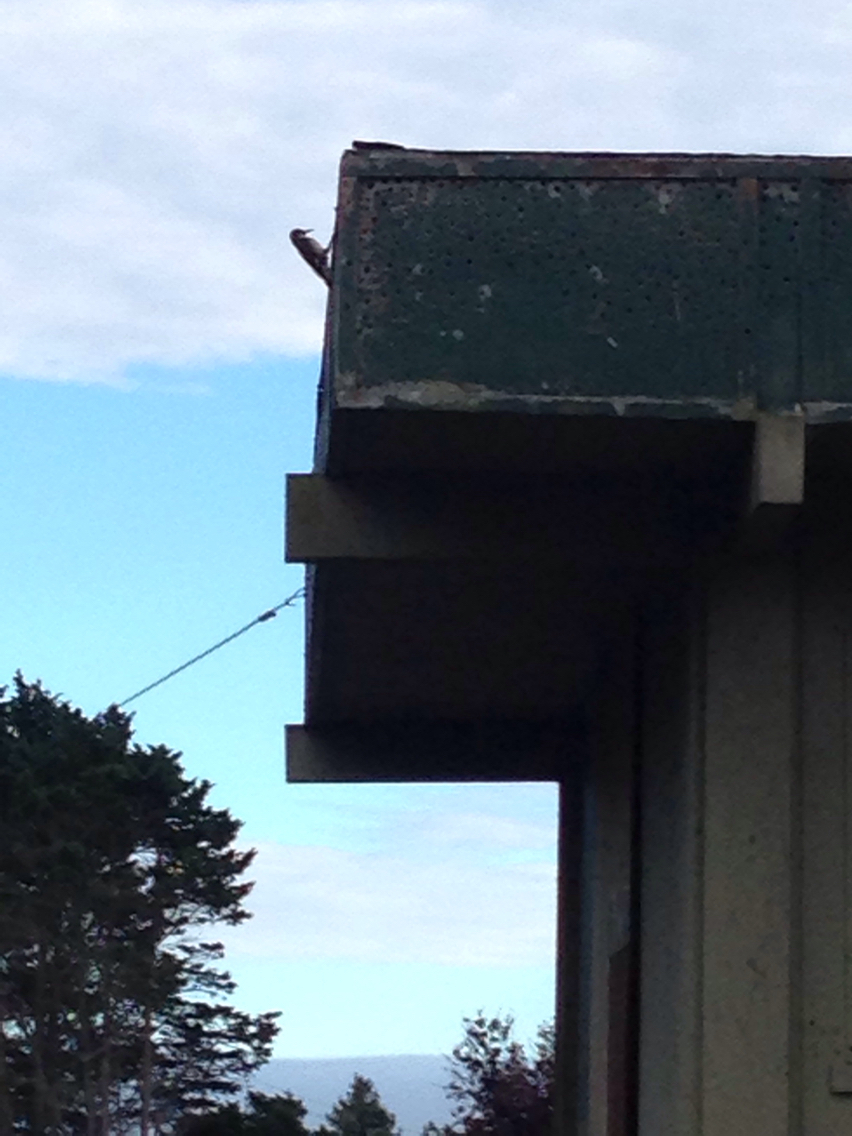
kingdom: Animalia
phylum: Chordata
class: Aves
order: Piciformes
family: Picidae
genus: Melanerpes
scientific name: Melanerpes formicivorus
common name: Acorn woodpecker
